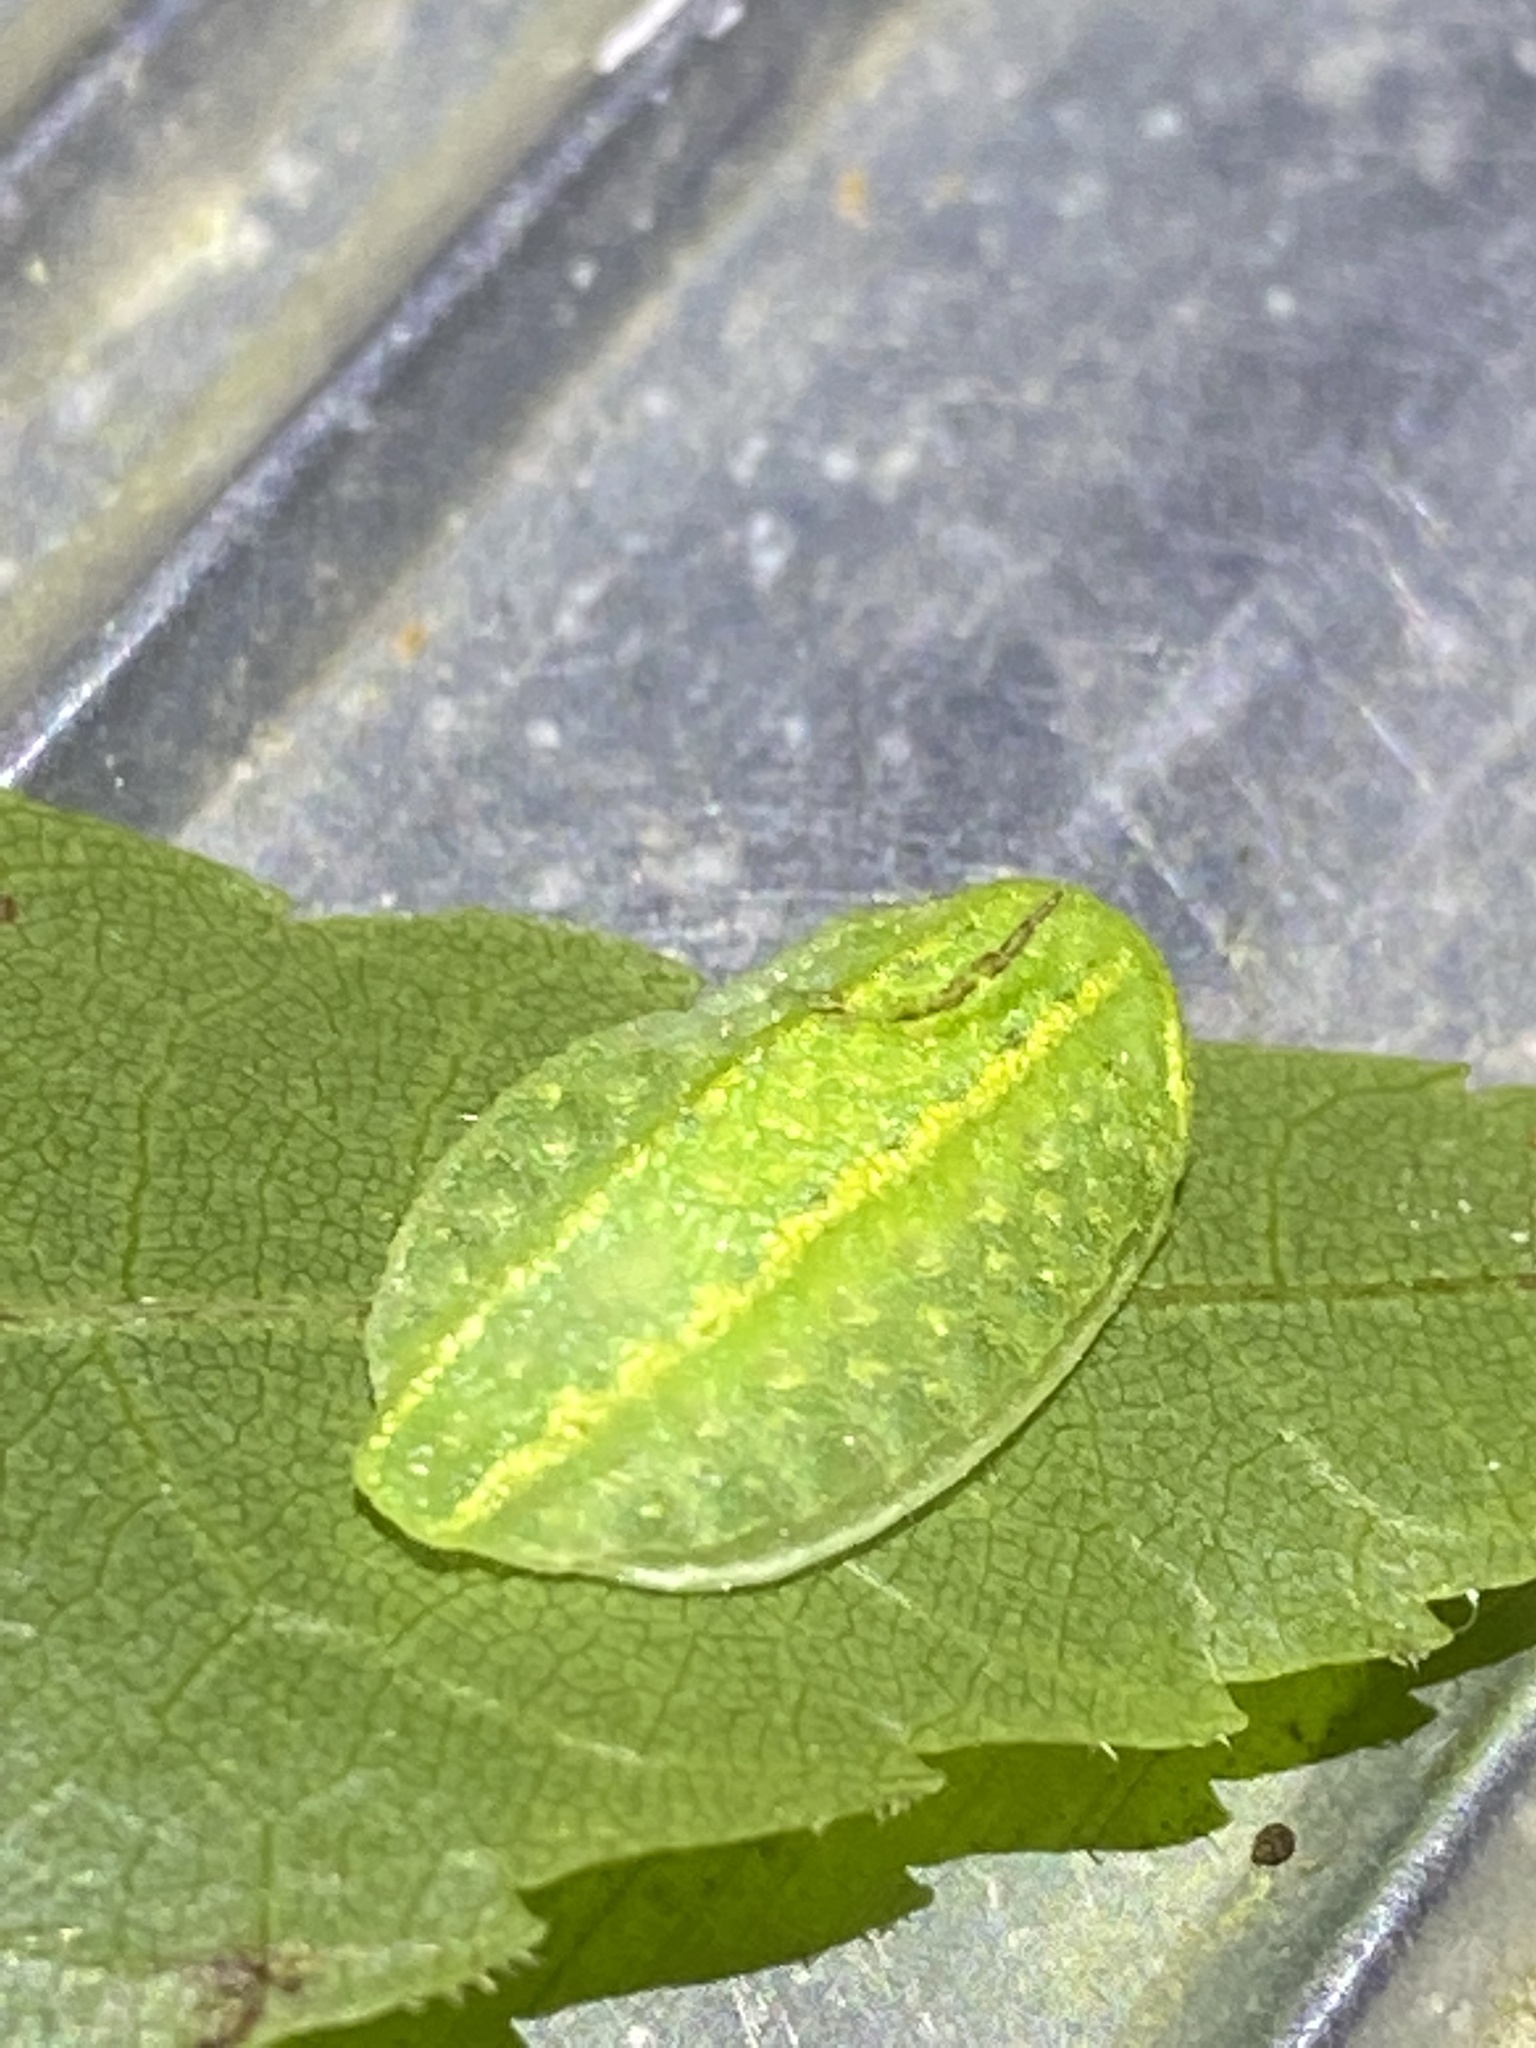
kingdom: Animalia
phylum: Arthropoda
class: Insecta
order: Lepidoptera
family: Limacodidae
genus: Lithacodes
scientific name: Lithacodes fasciola
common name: Yellow-shouldered slug moth
